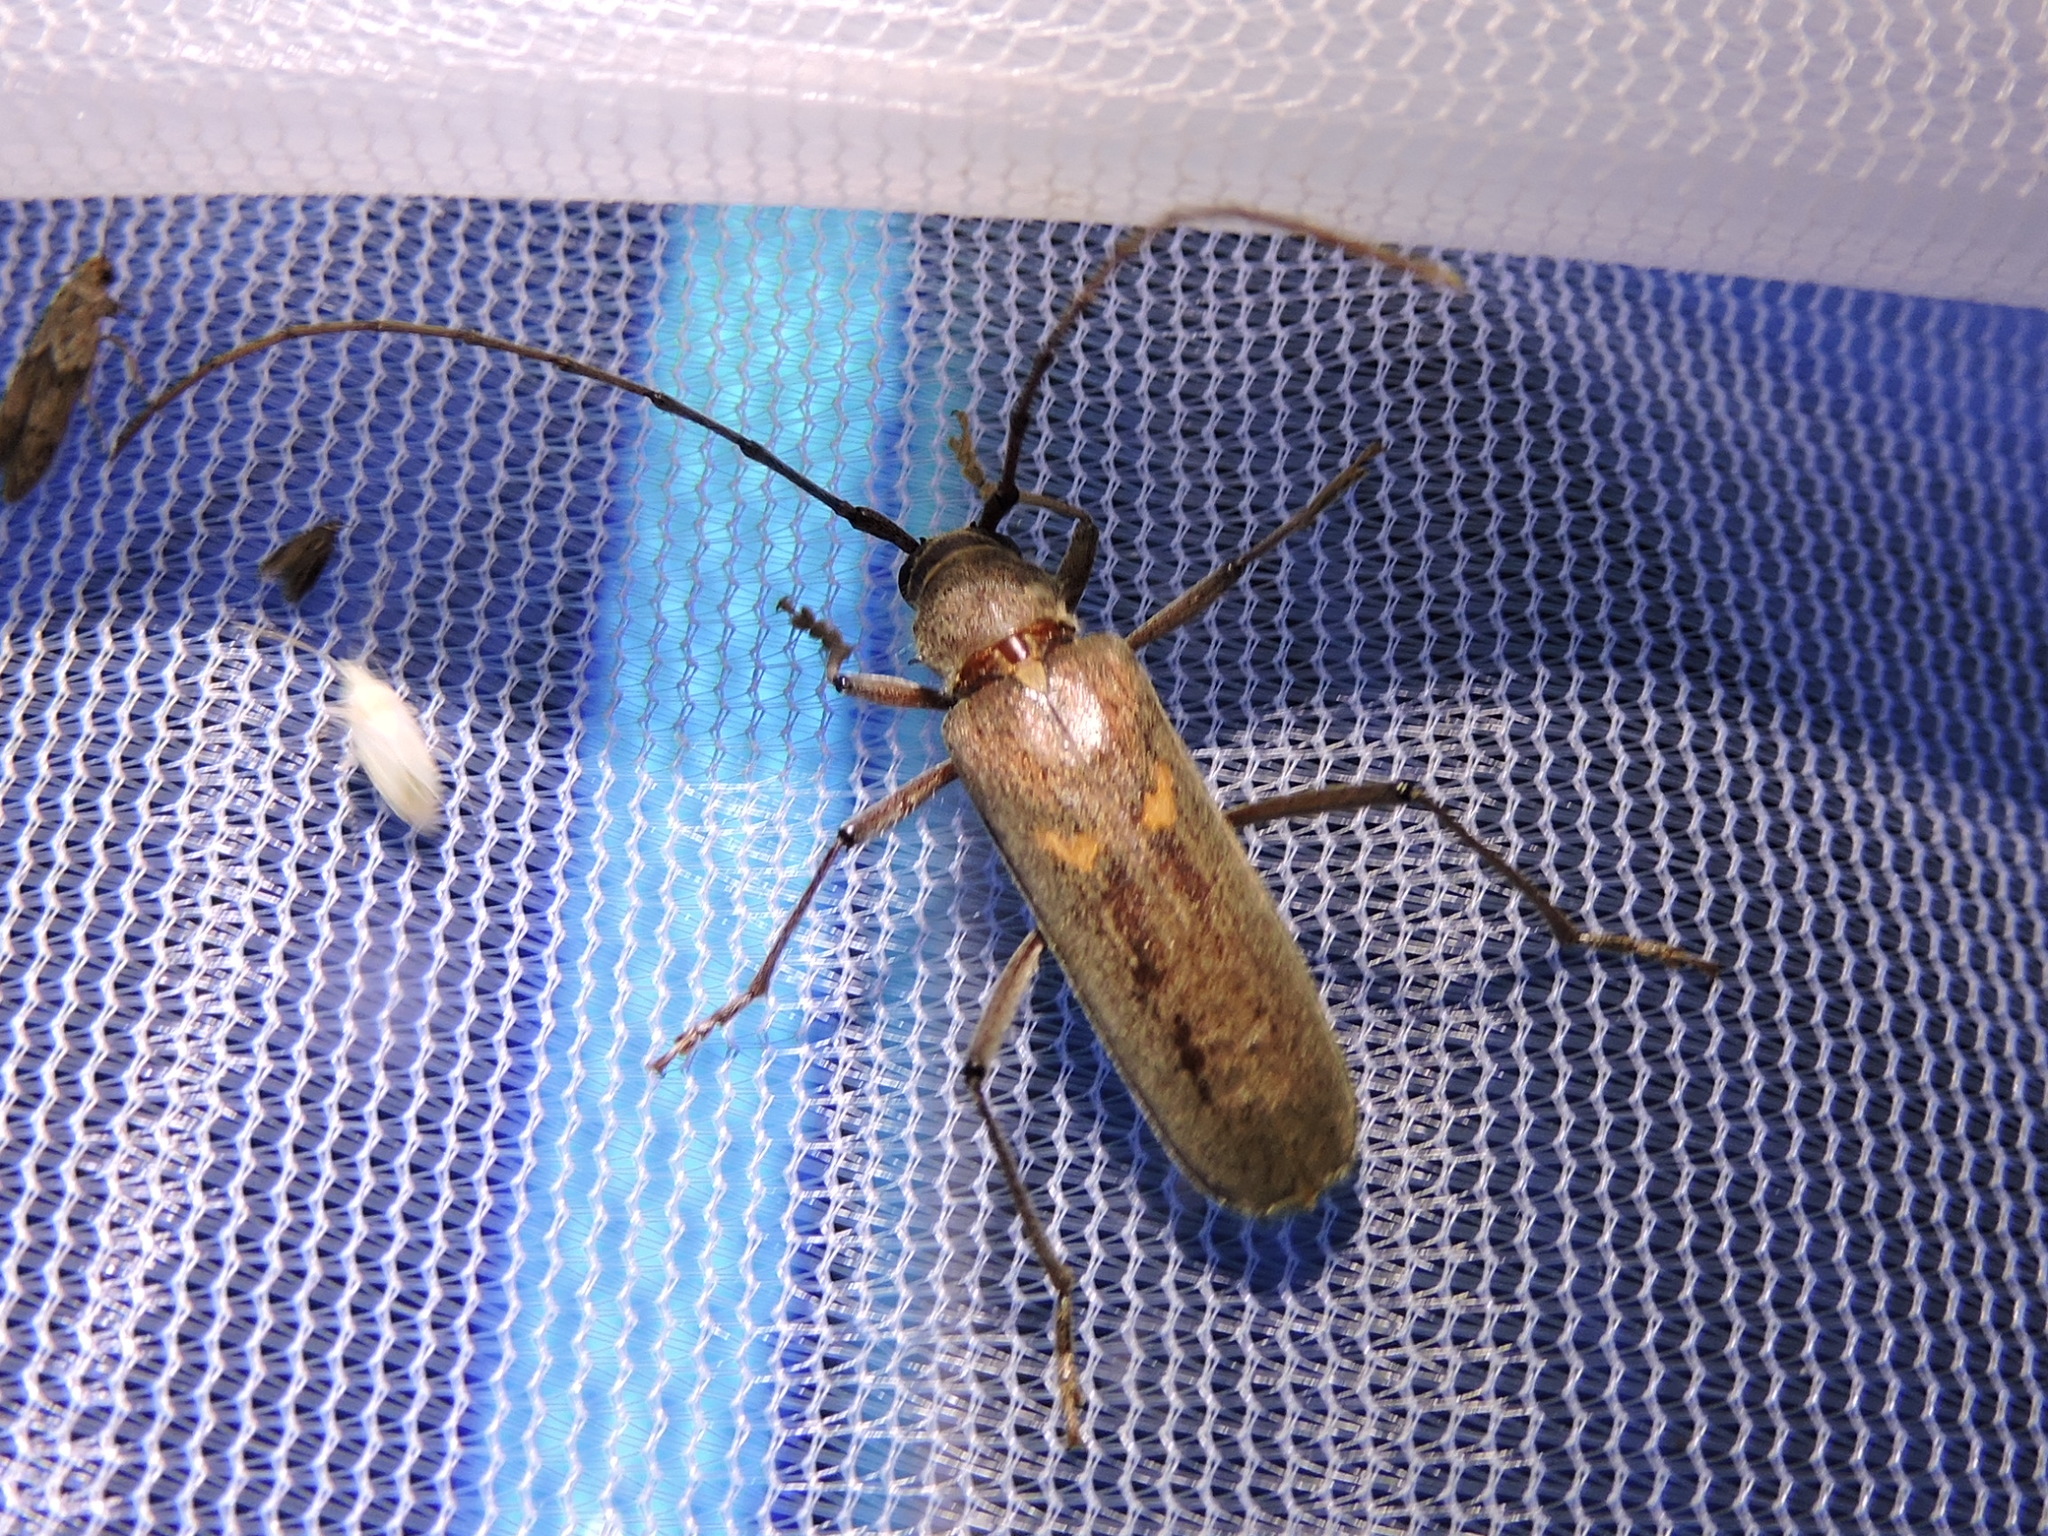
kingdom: Animalia
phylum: Arthropoda
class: Insecta
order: Coleoptera
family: Cerambycidae
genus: Knulliana
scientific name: Knulliana cincta
